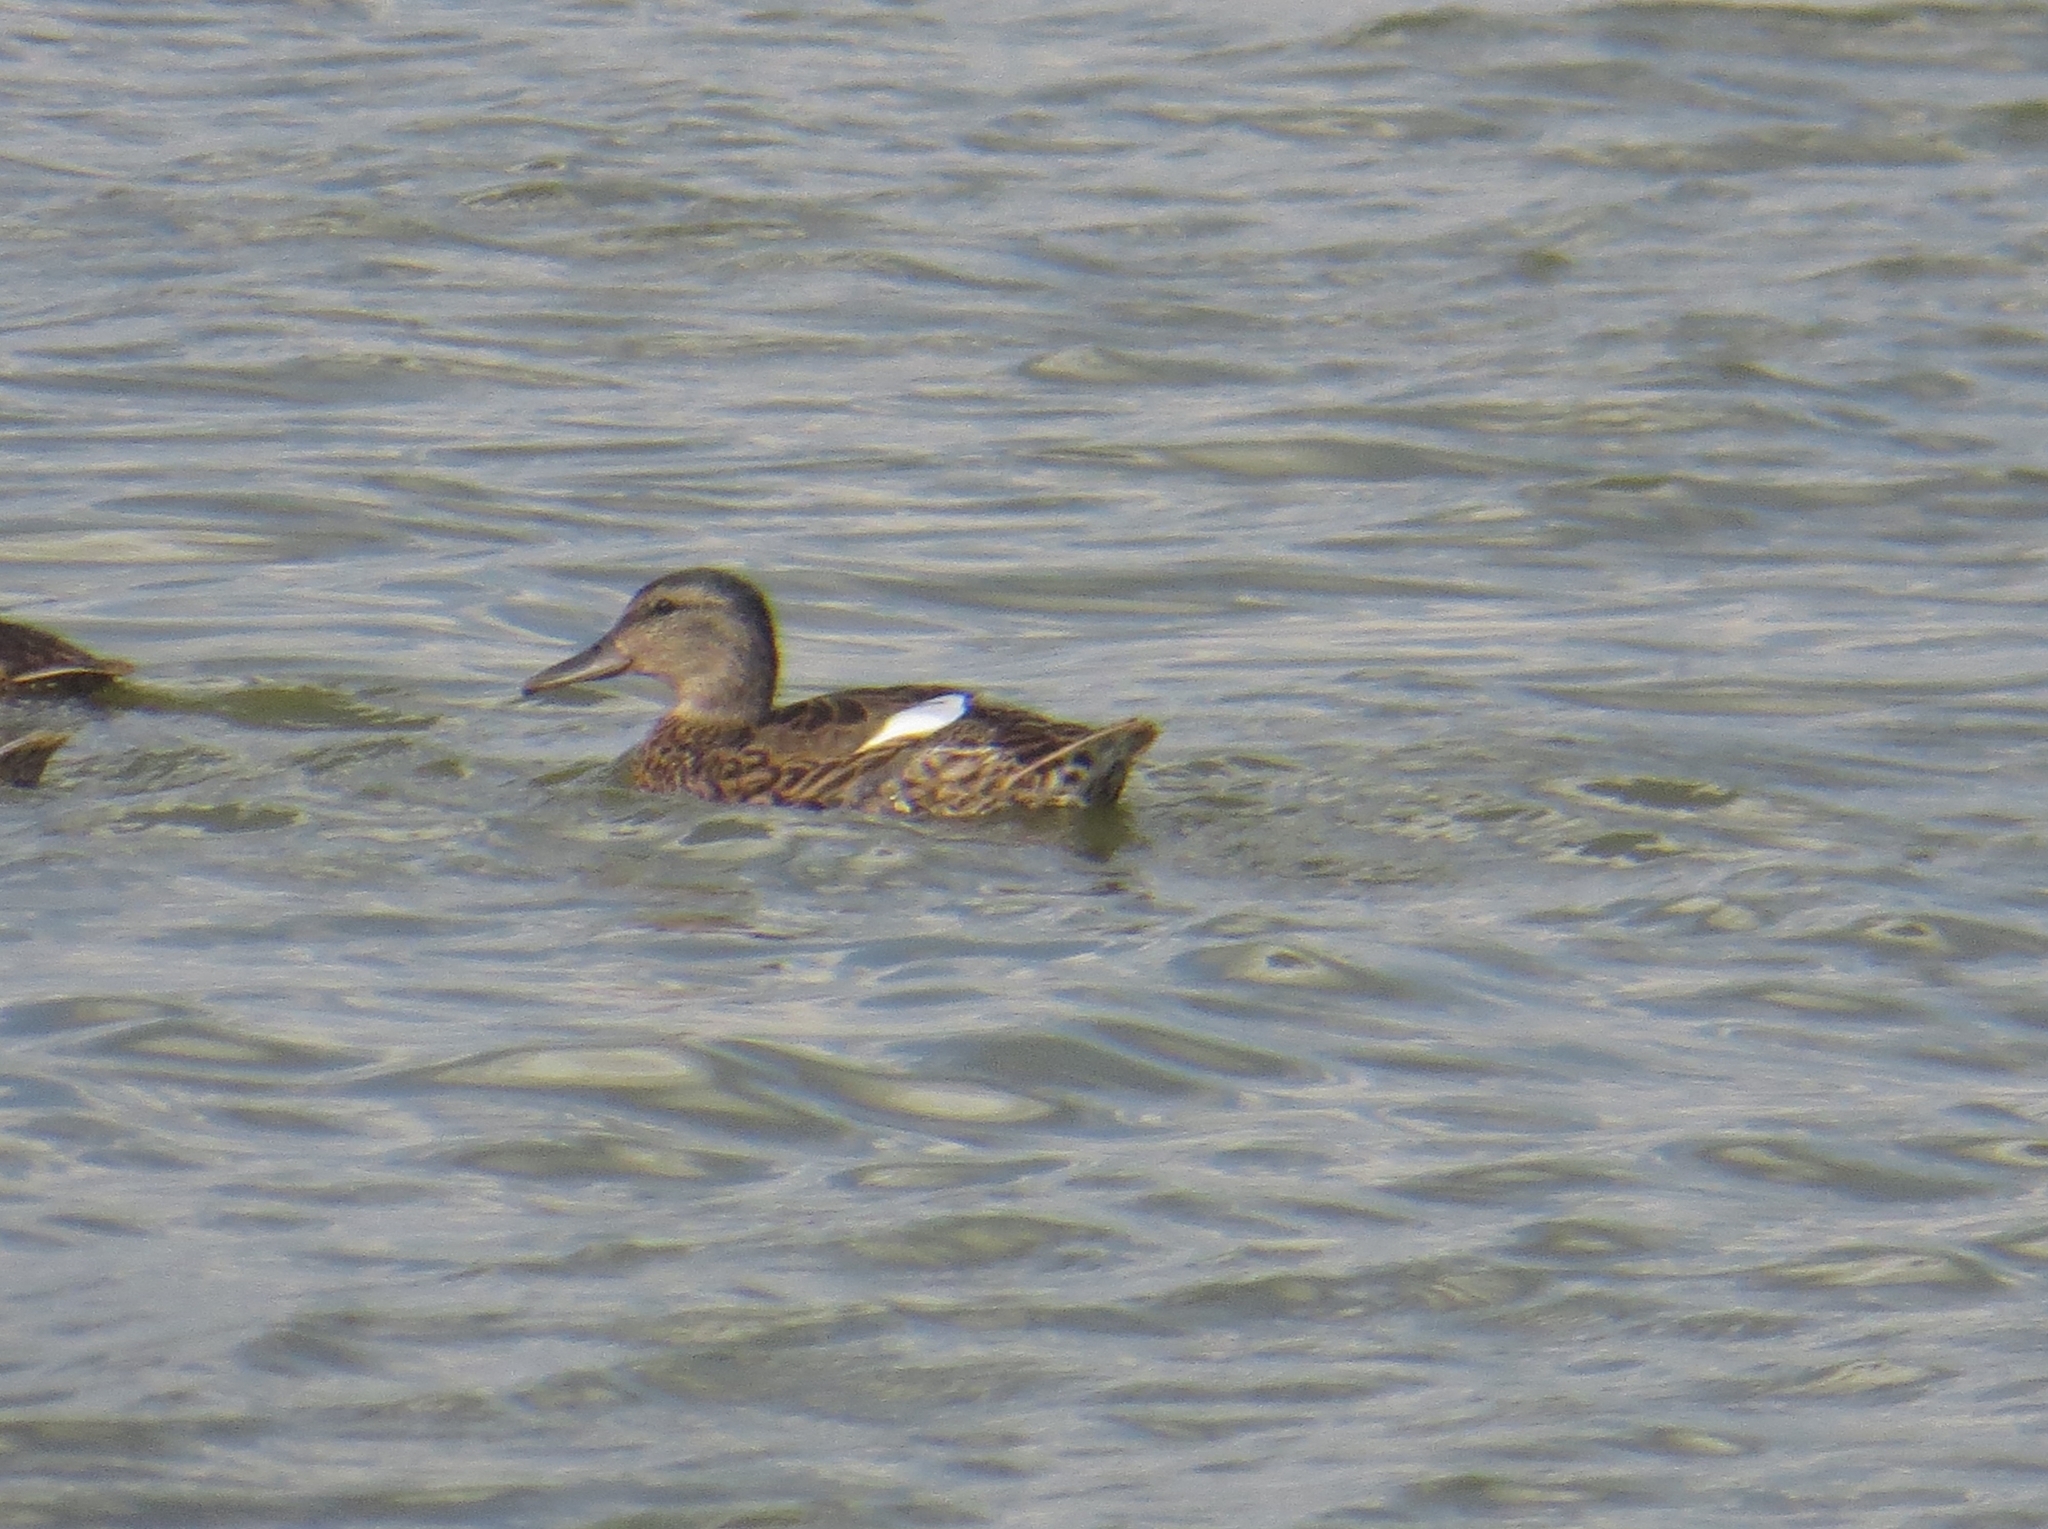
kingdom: Animalia
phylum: Chordata
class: Aves
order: Anseriformes
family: Anatidae
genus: Anas
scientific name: Anas platyrhynchos
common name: Mallard
